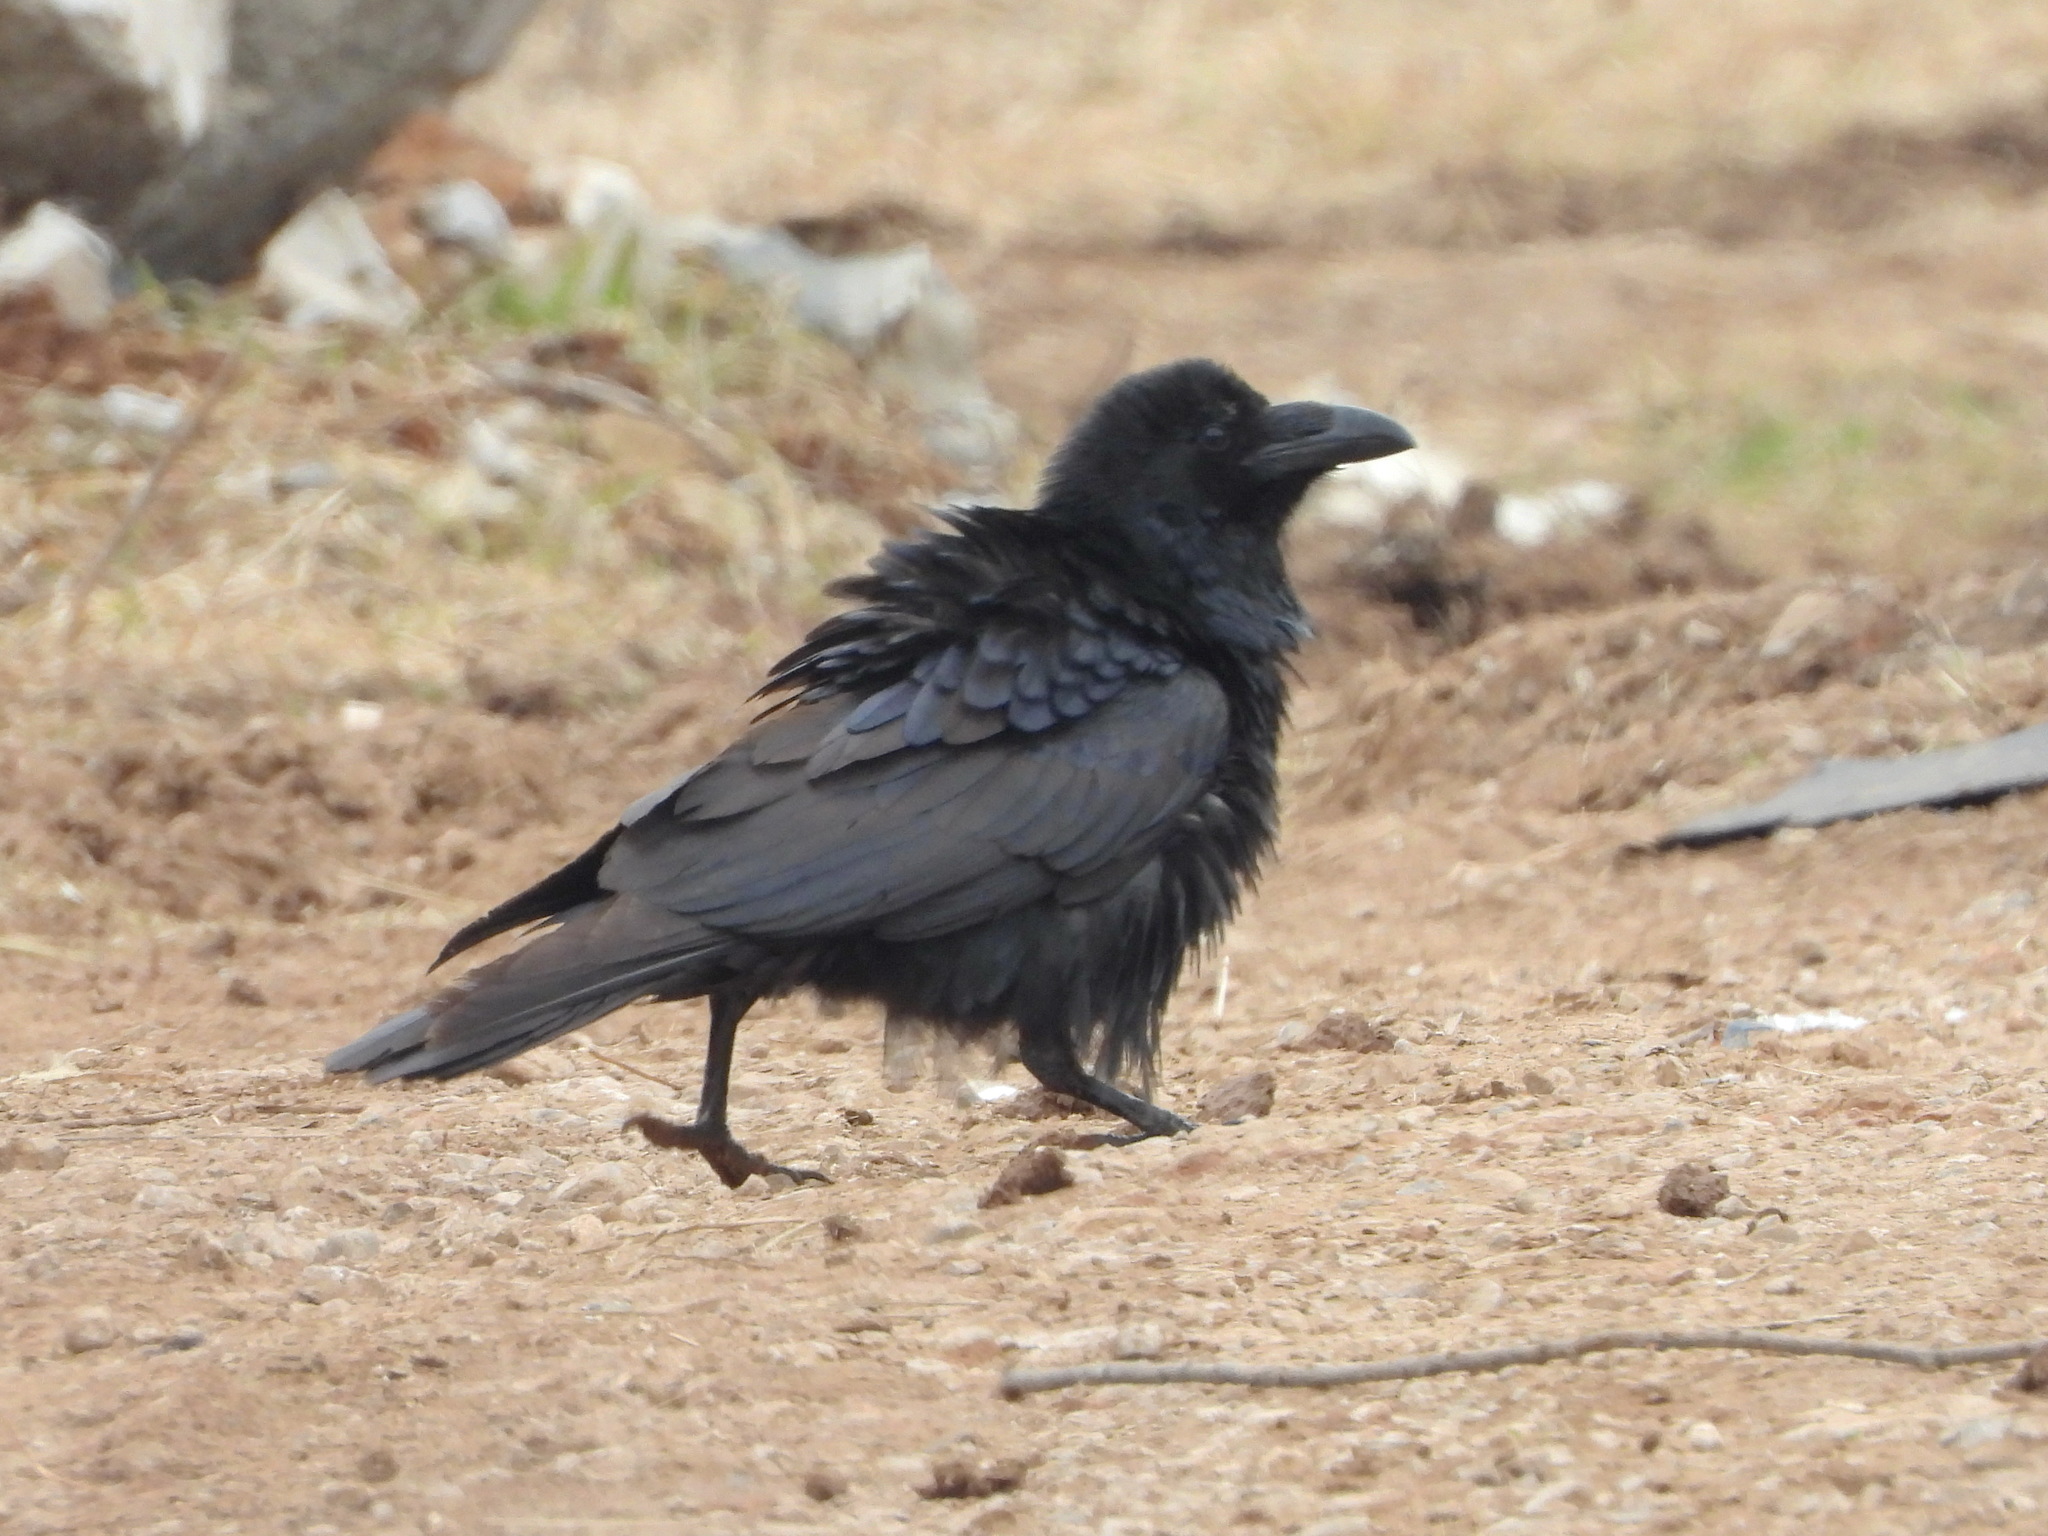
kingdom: Animalia
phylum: Chordata
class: Aves
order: Passeriformes
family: Corvidae
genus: Corvus
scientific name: Corvus corax
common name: Common raven
